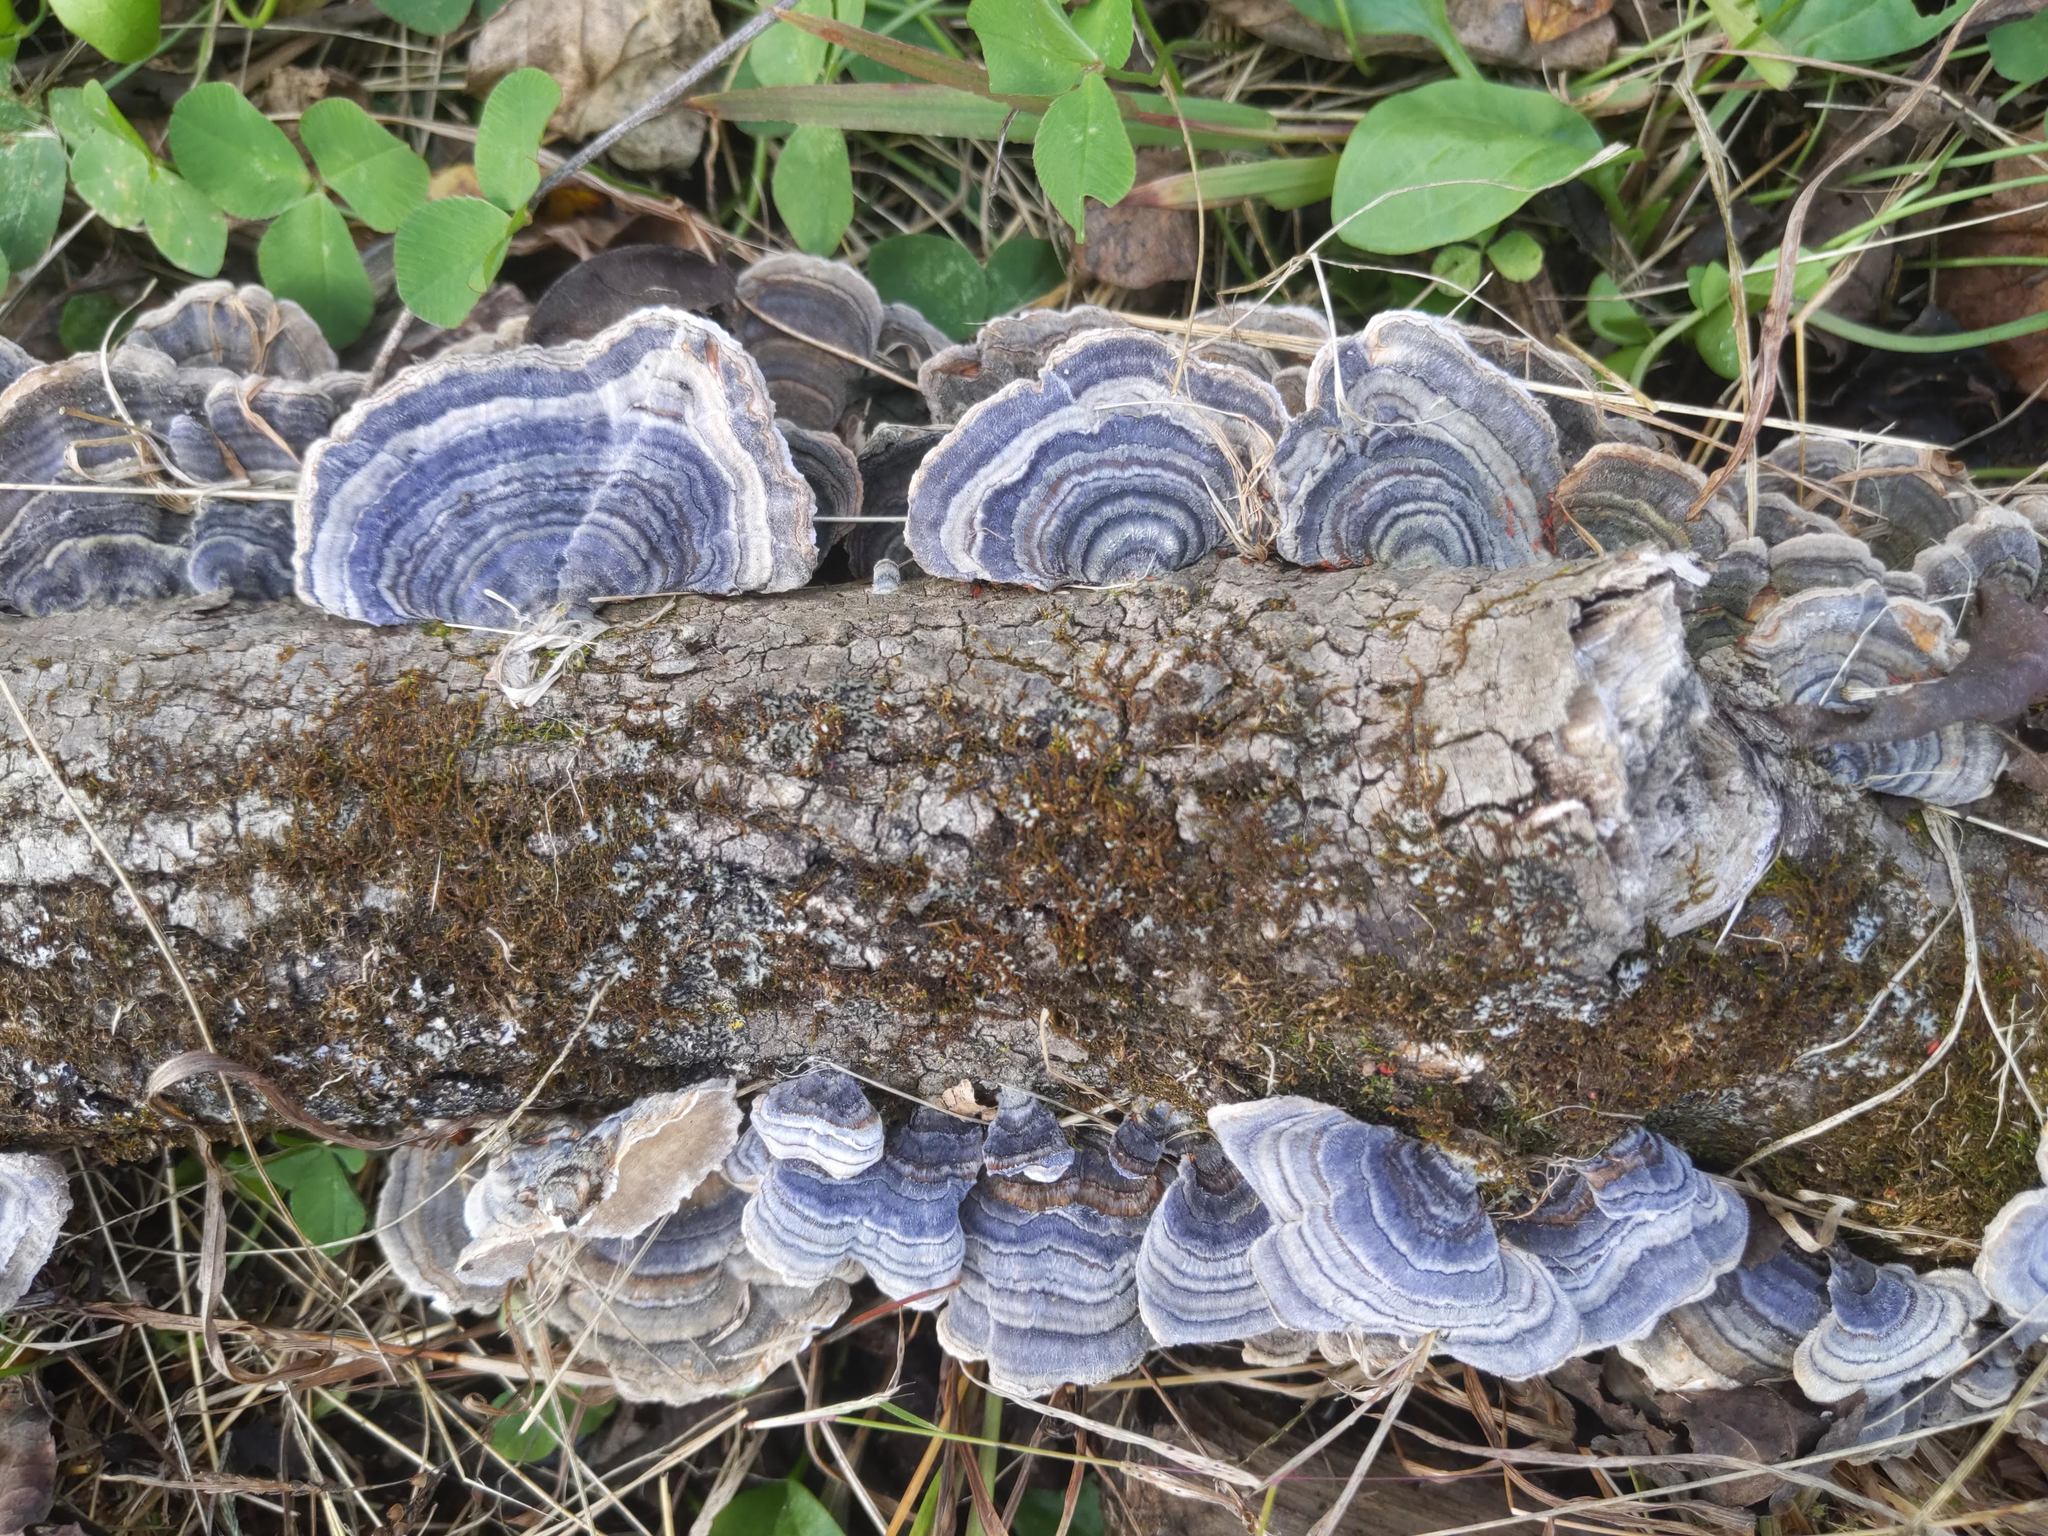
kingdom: Fungi
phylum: Basidiomycota
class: Agaricomycetes
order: Polyporales
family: Polyporaceae
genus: Trametes
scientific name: Trametes versicolor
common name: Turkeytail
